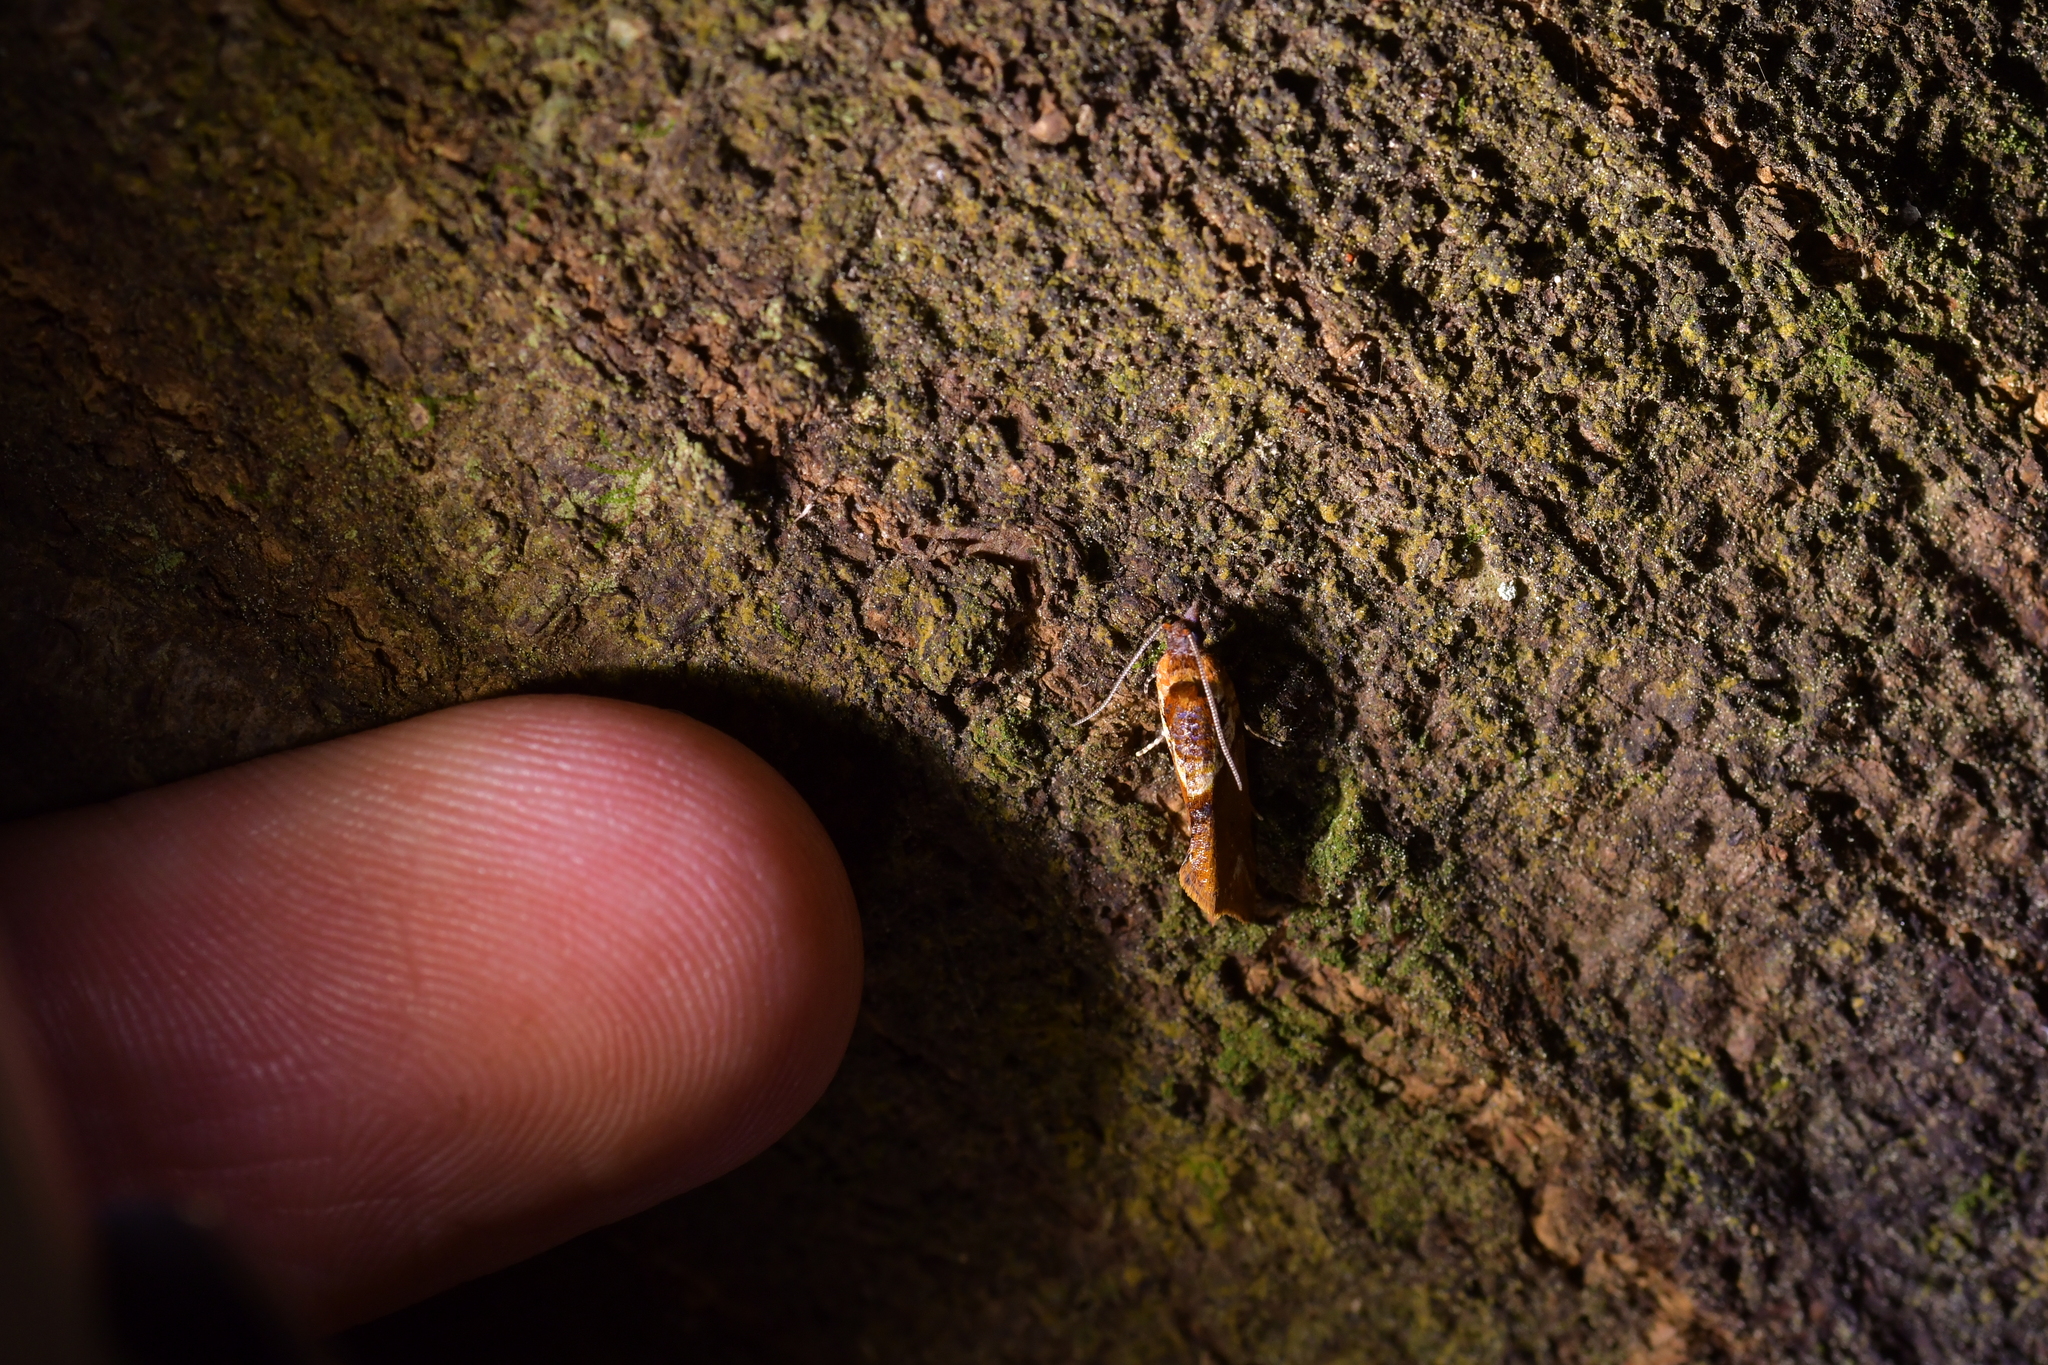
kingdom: Animalia
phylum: Arthropoda
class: Insecta
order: Lepidoptera
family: Tortricidae
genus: Pyrgotis
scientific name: Pyrgotis plagiatana
